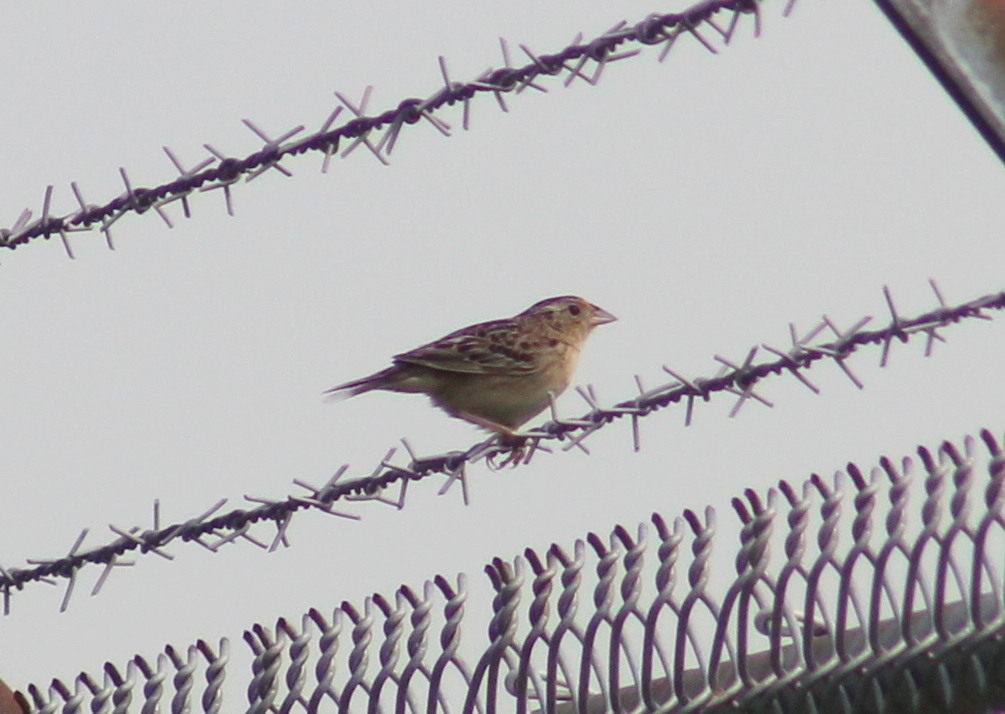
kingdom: Animalia
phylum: Chordata
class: Aves
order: Passeriformes
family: Passerellidae
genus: Ammodramus
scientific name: Ammodramus savannarum
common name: Grasshopper sparrow
